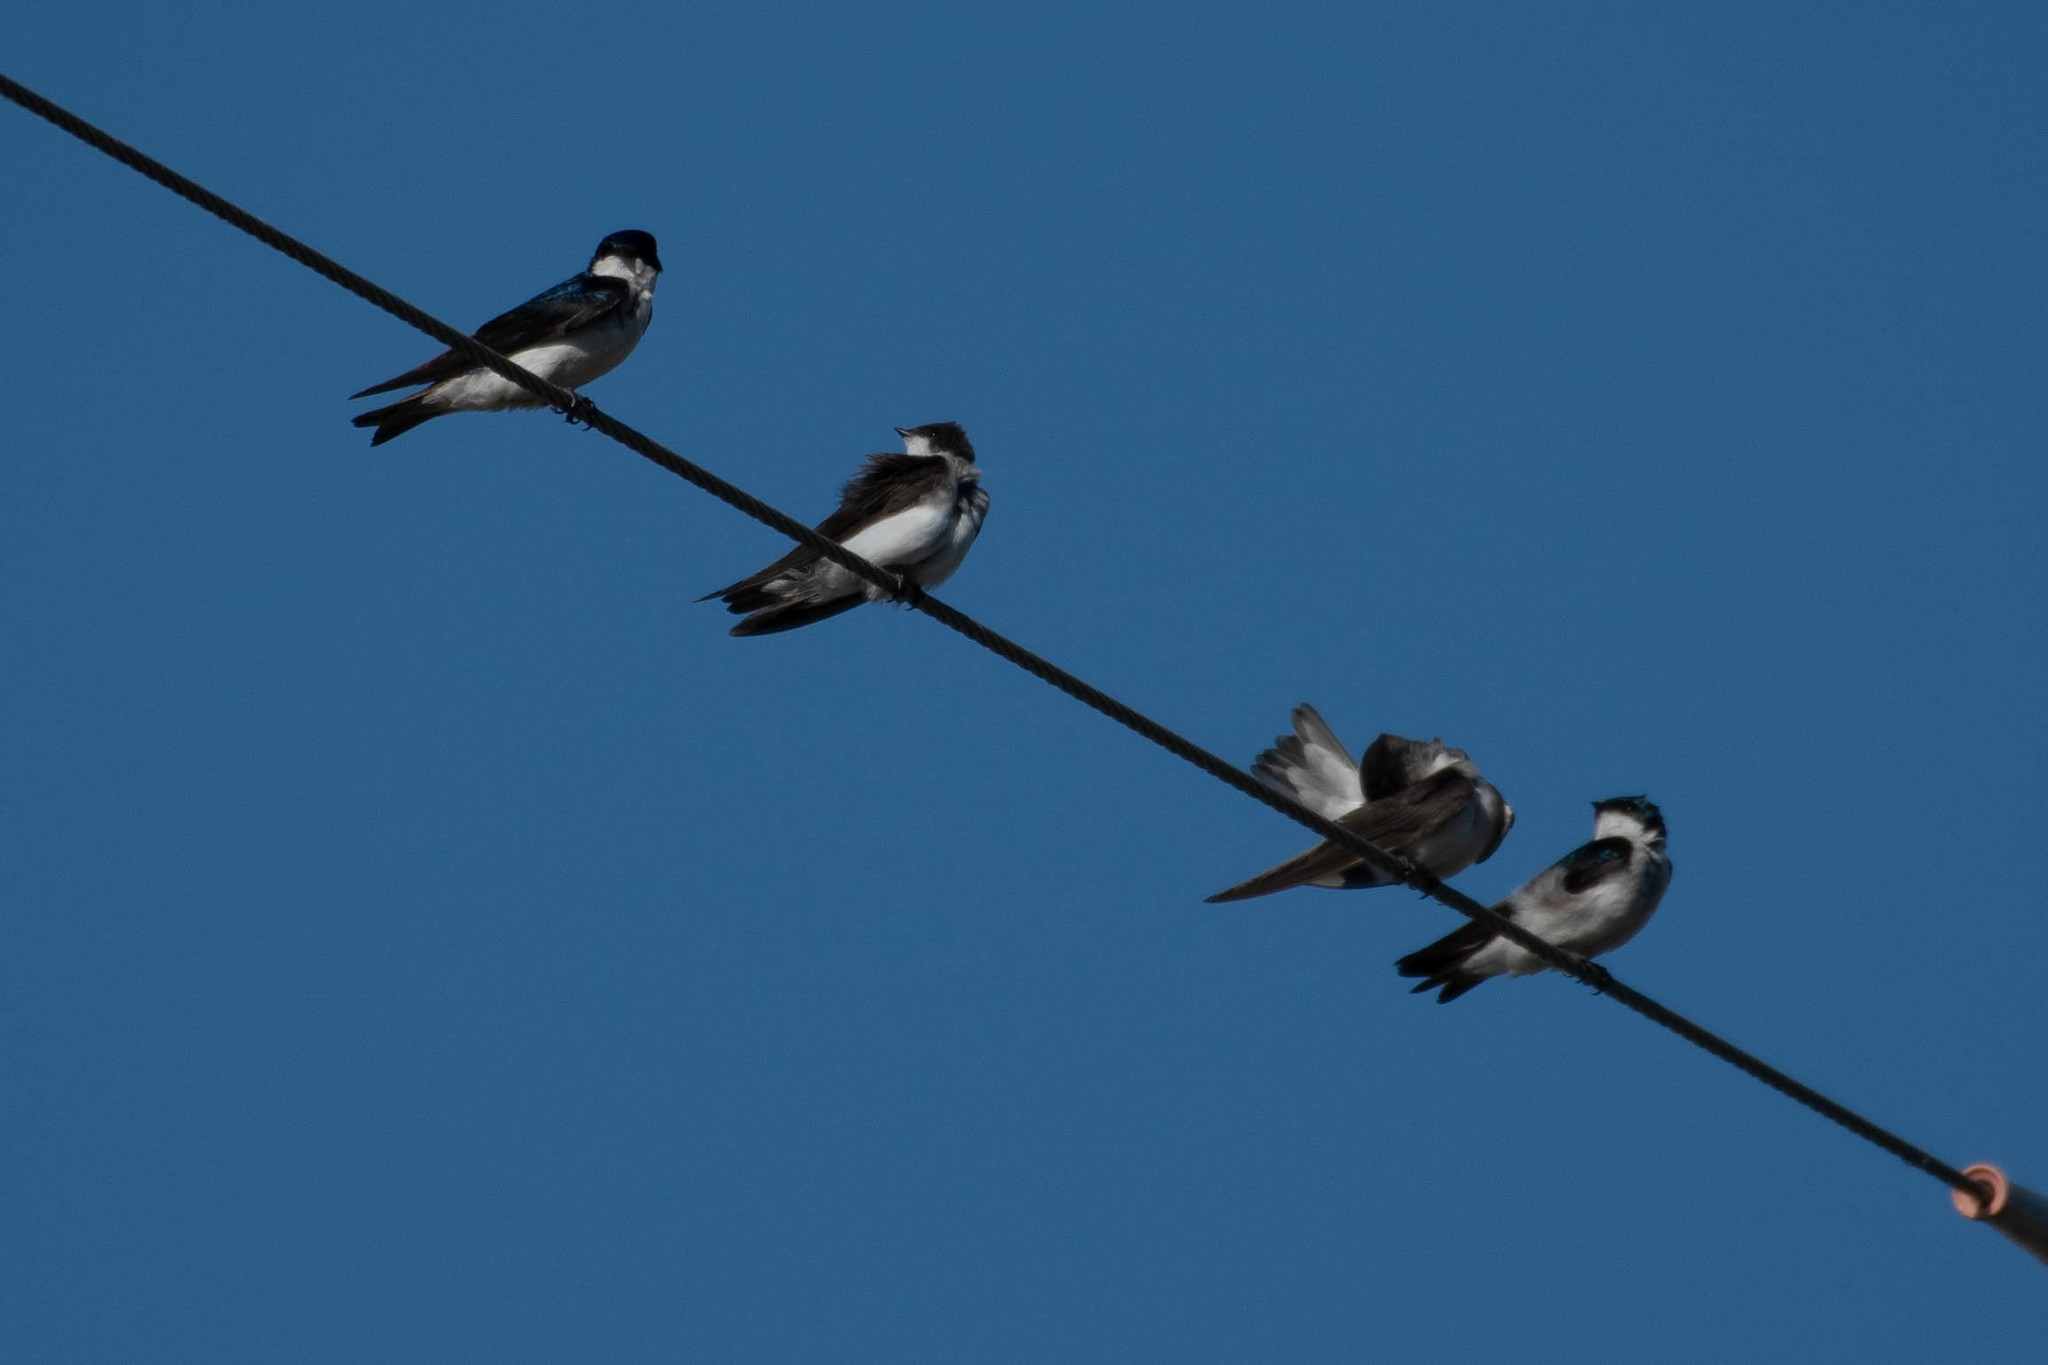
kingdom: Animalia
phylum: Chordata
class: Aves
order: Passeriformes
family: Hirundinidae
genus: Tachycineta
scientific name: Tachycineta bicolor
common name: Tree swallow
